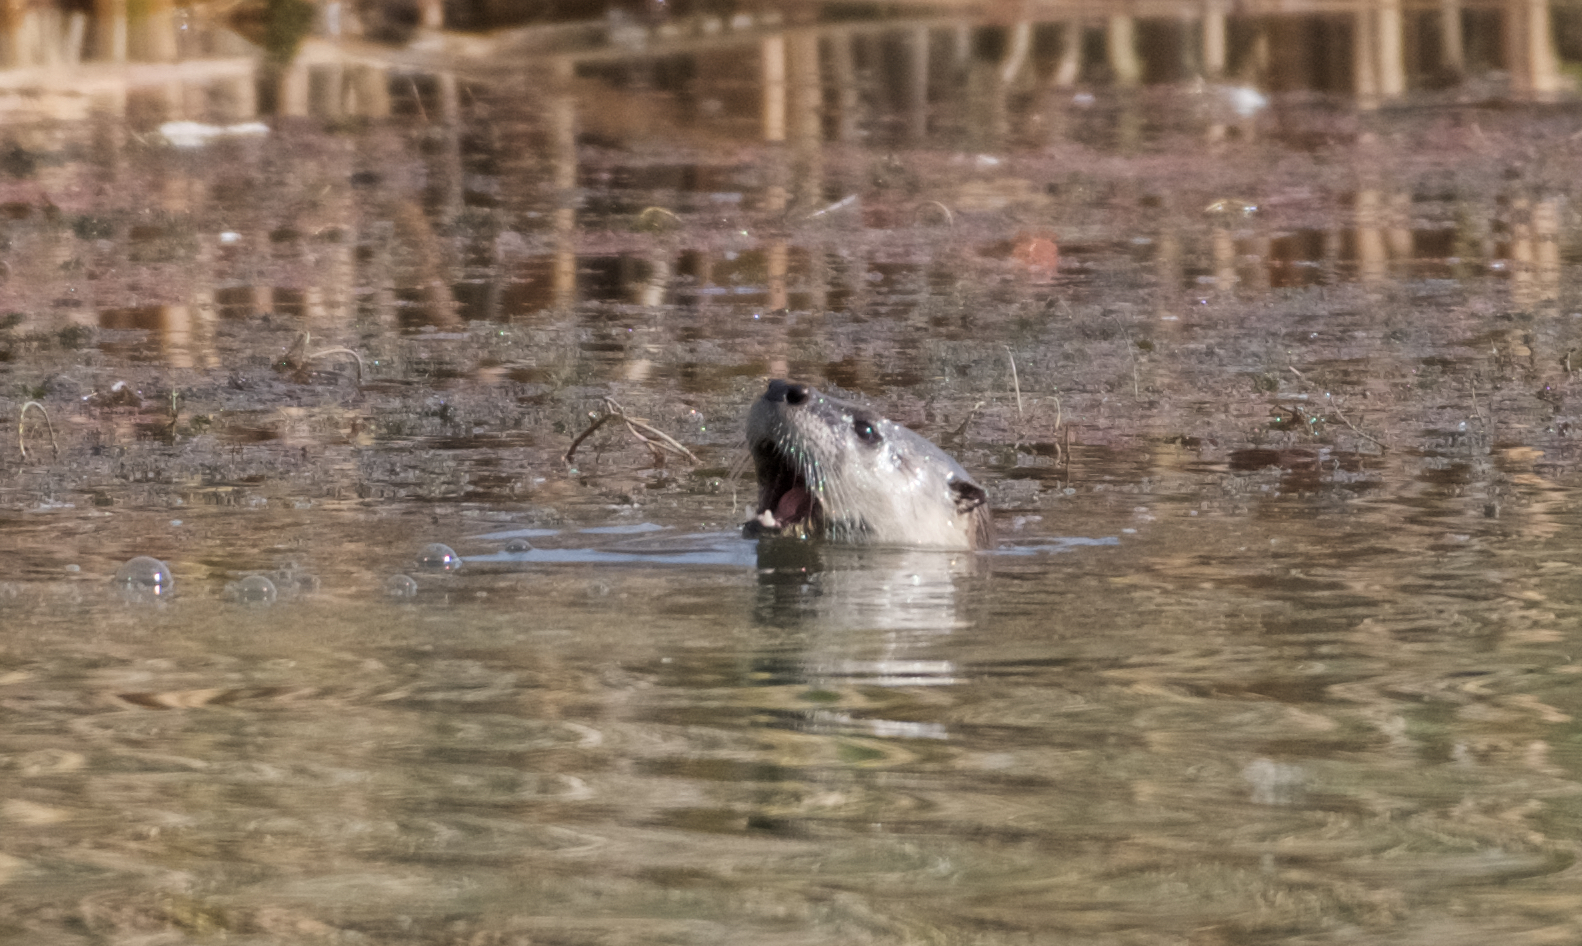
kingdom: Animalia
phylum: Chordata
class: Mammalia
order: Carnivora
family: Mustelidae
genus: Lontra
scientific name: Lontra canadensis
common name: North american river otter
